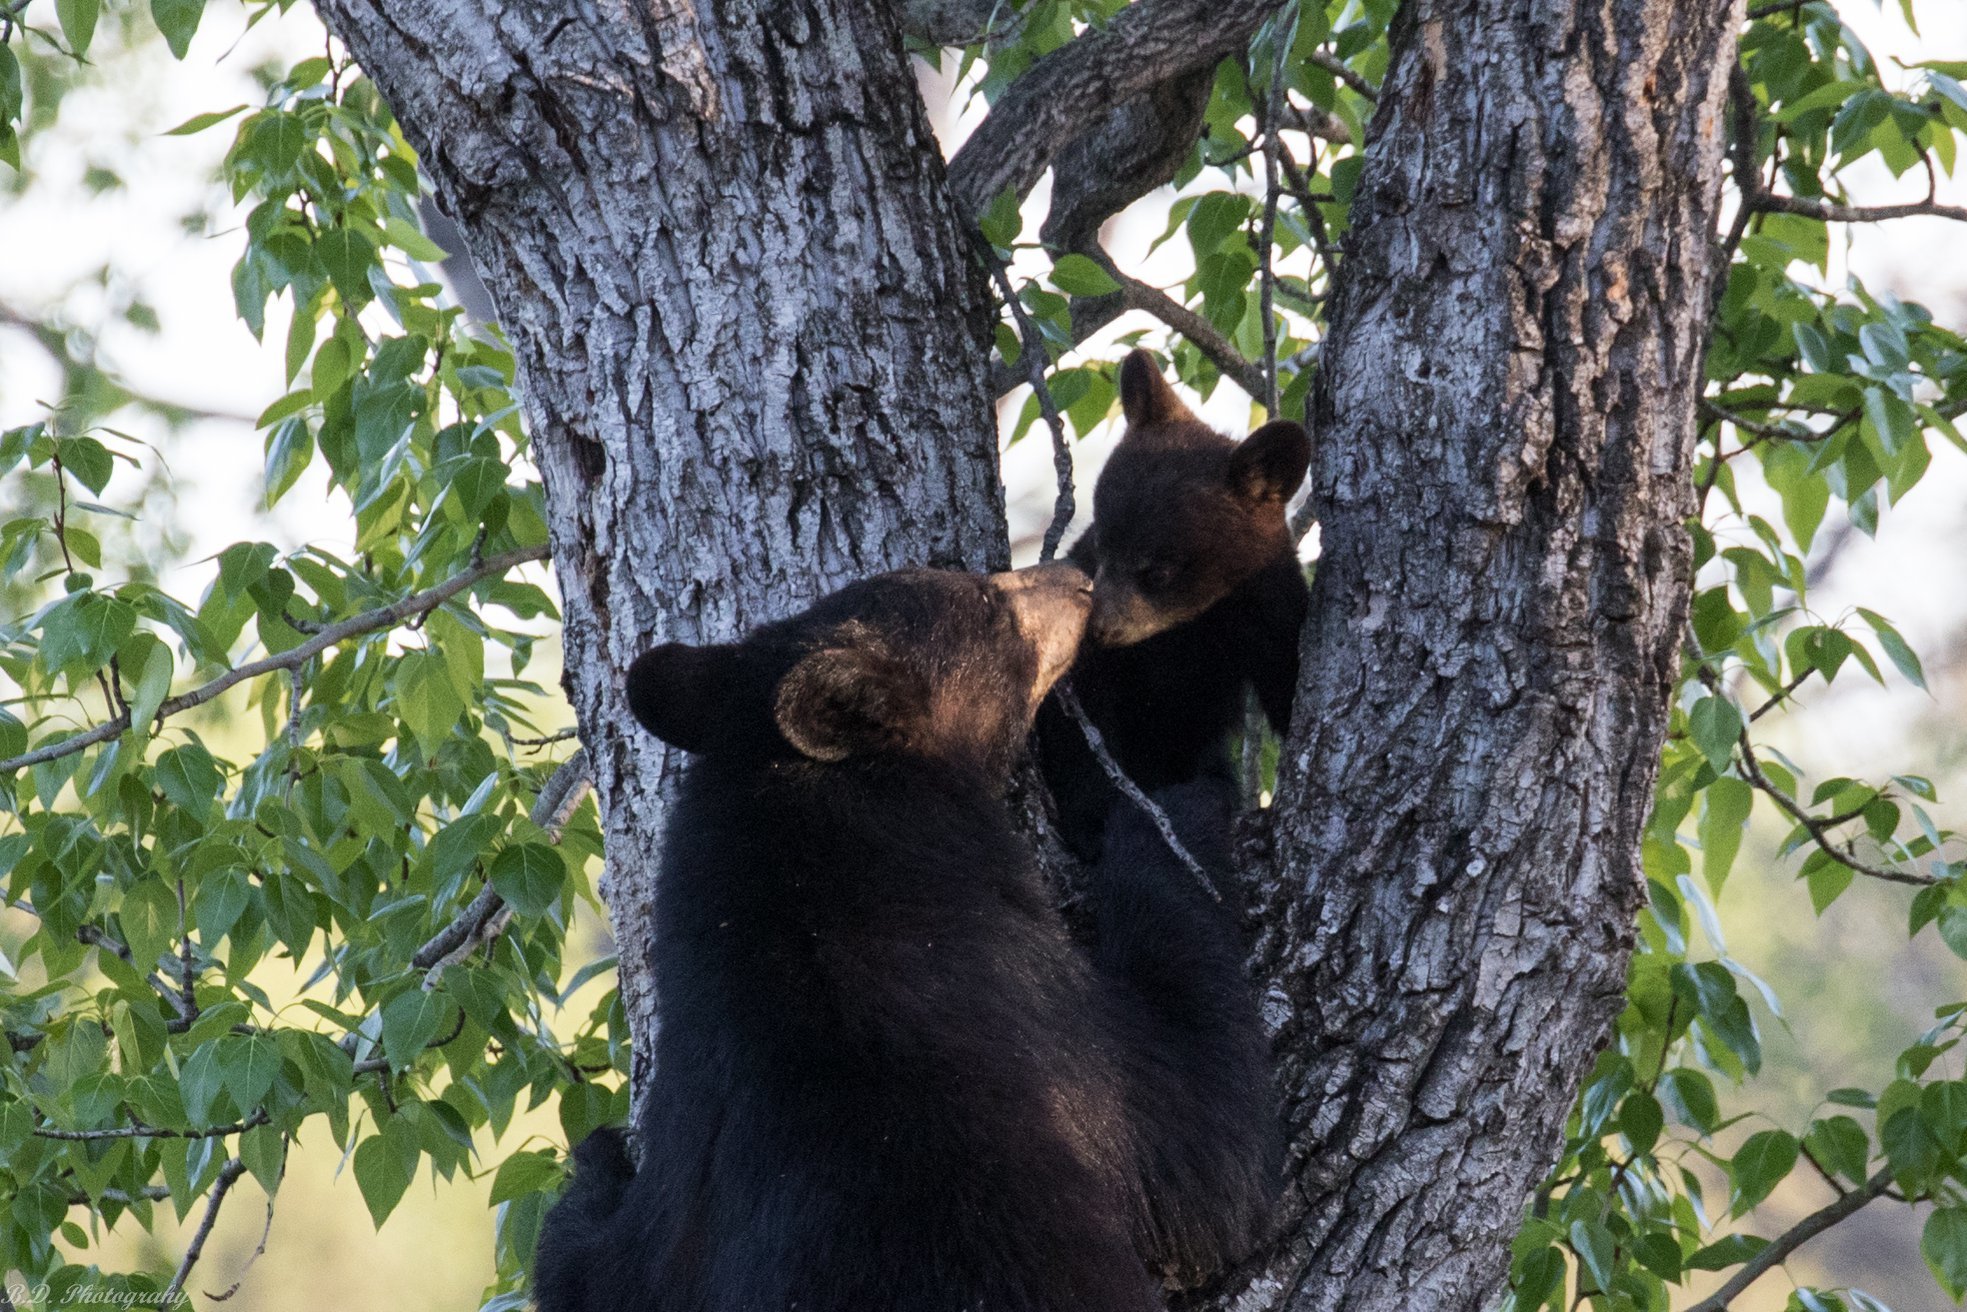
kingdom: Animalia
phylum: Chordata
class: Mammalia
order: Carnivora
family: Ursidae
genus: Ursus
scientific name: Ursus americanus
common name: American black bear
